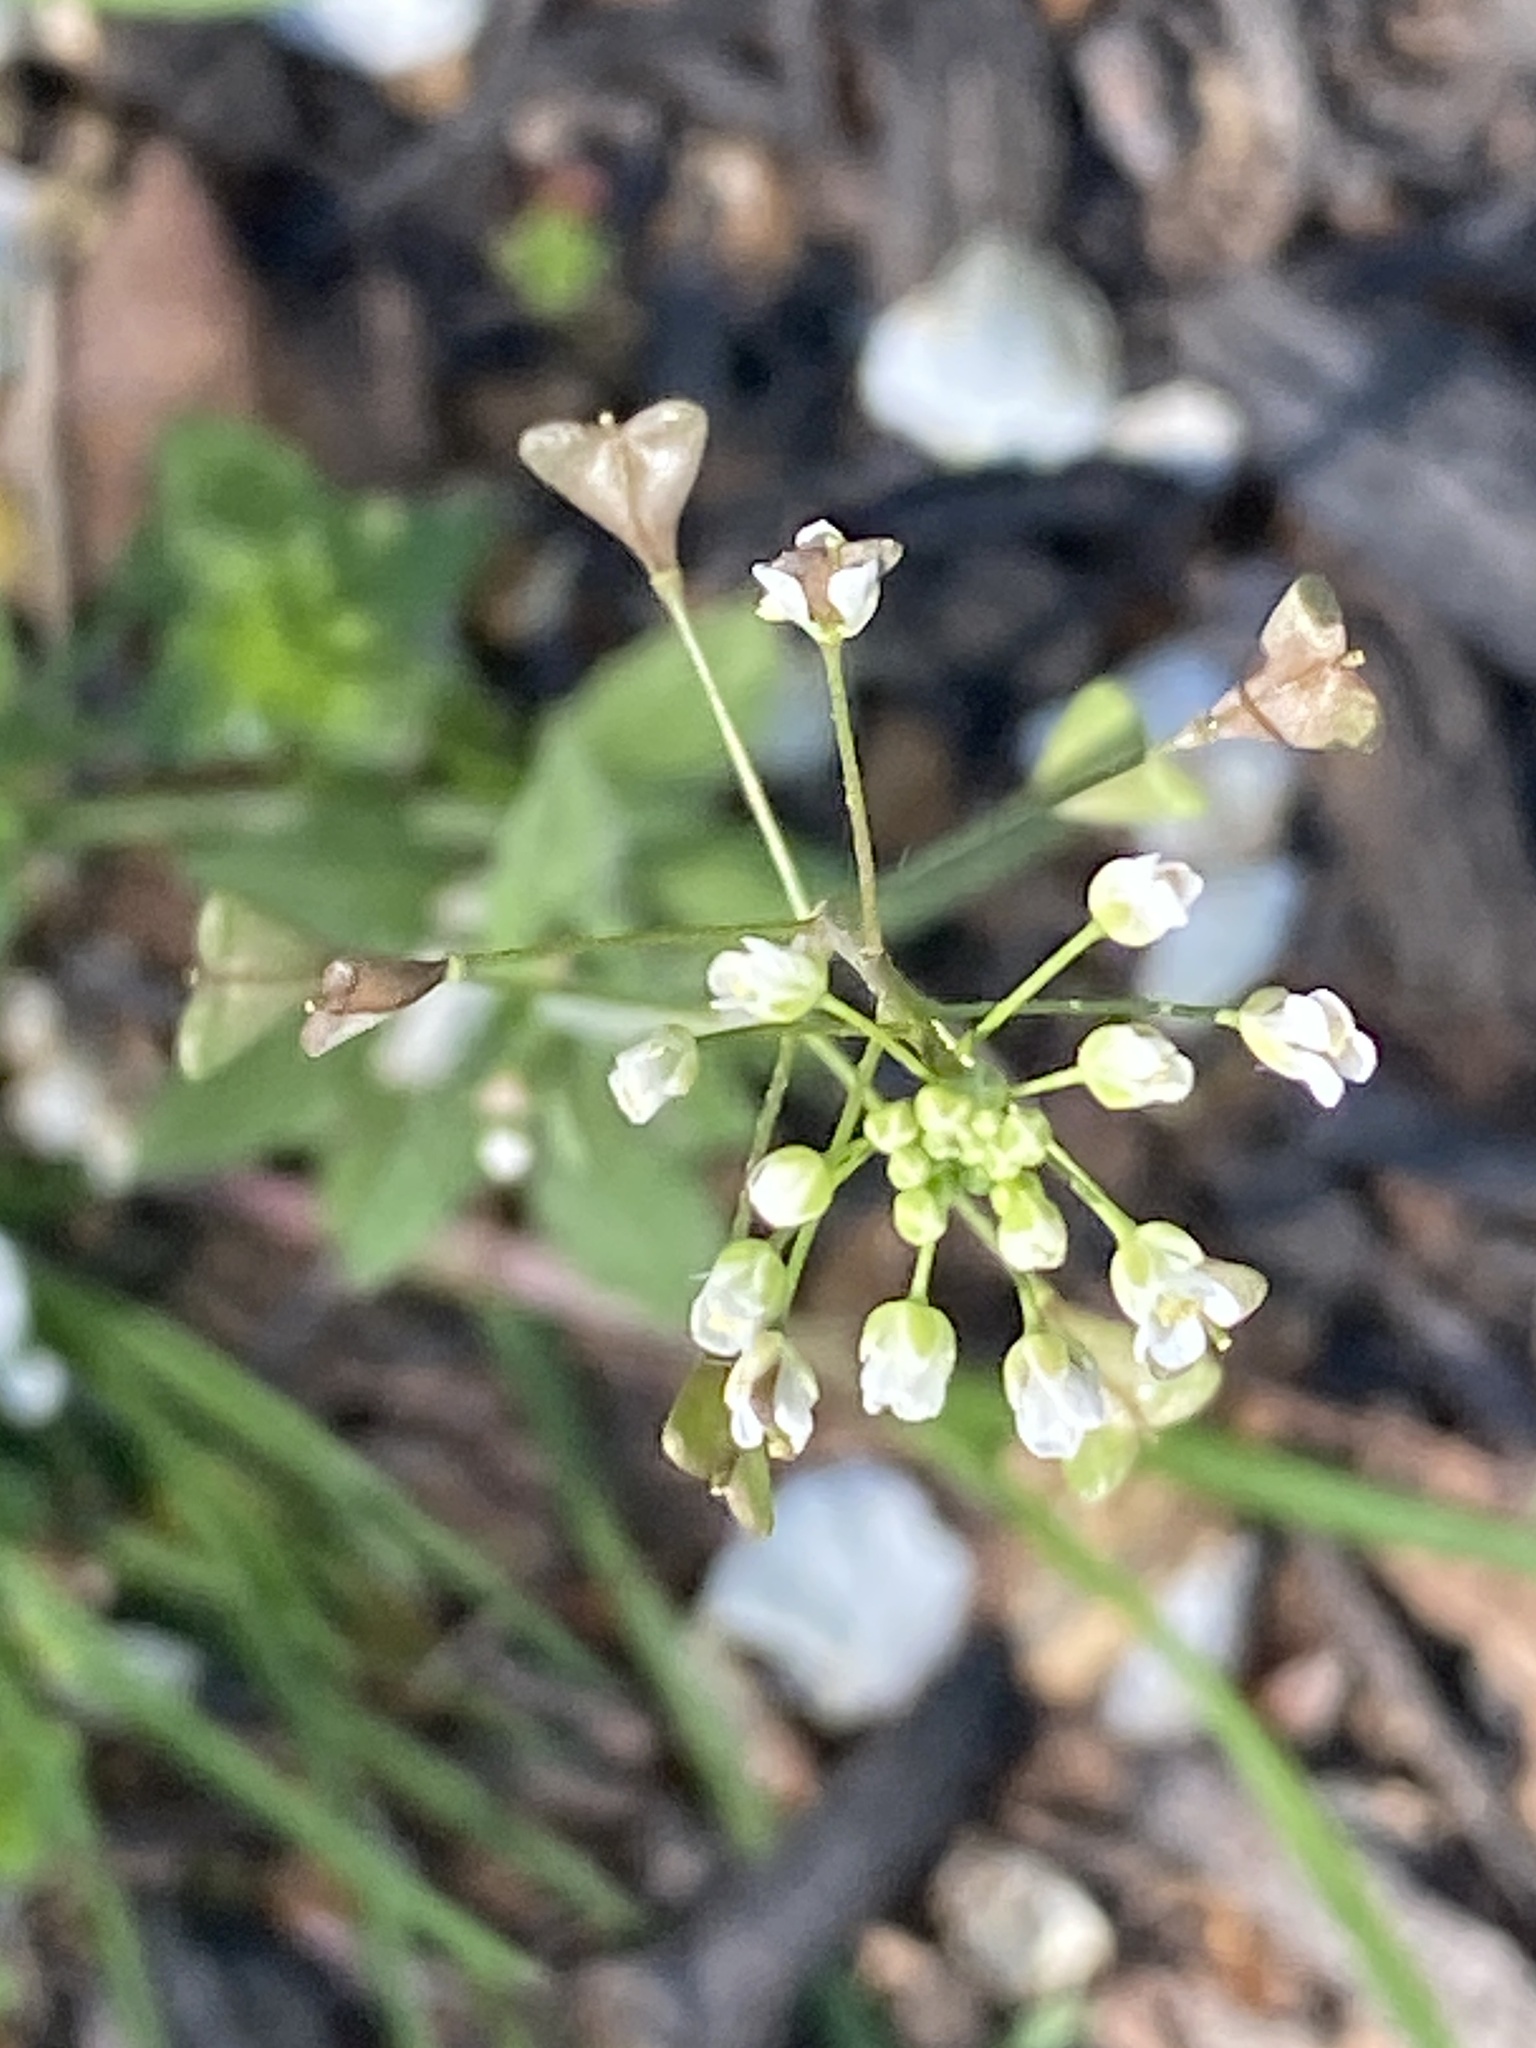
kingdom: Plantae
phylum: Tracheophyta
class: Magnoliopsida
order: Brassicales
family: Brassicaceae
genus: Capsella
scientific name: Capsella bursa-pastoris
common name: Shepherd's purse
